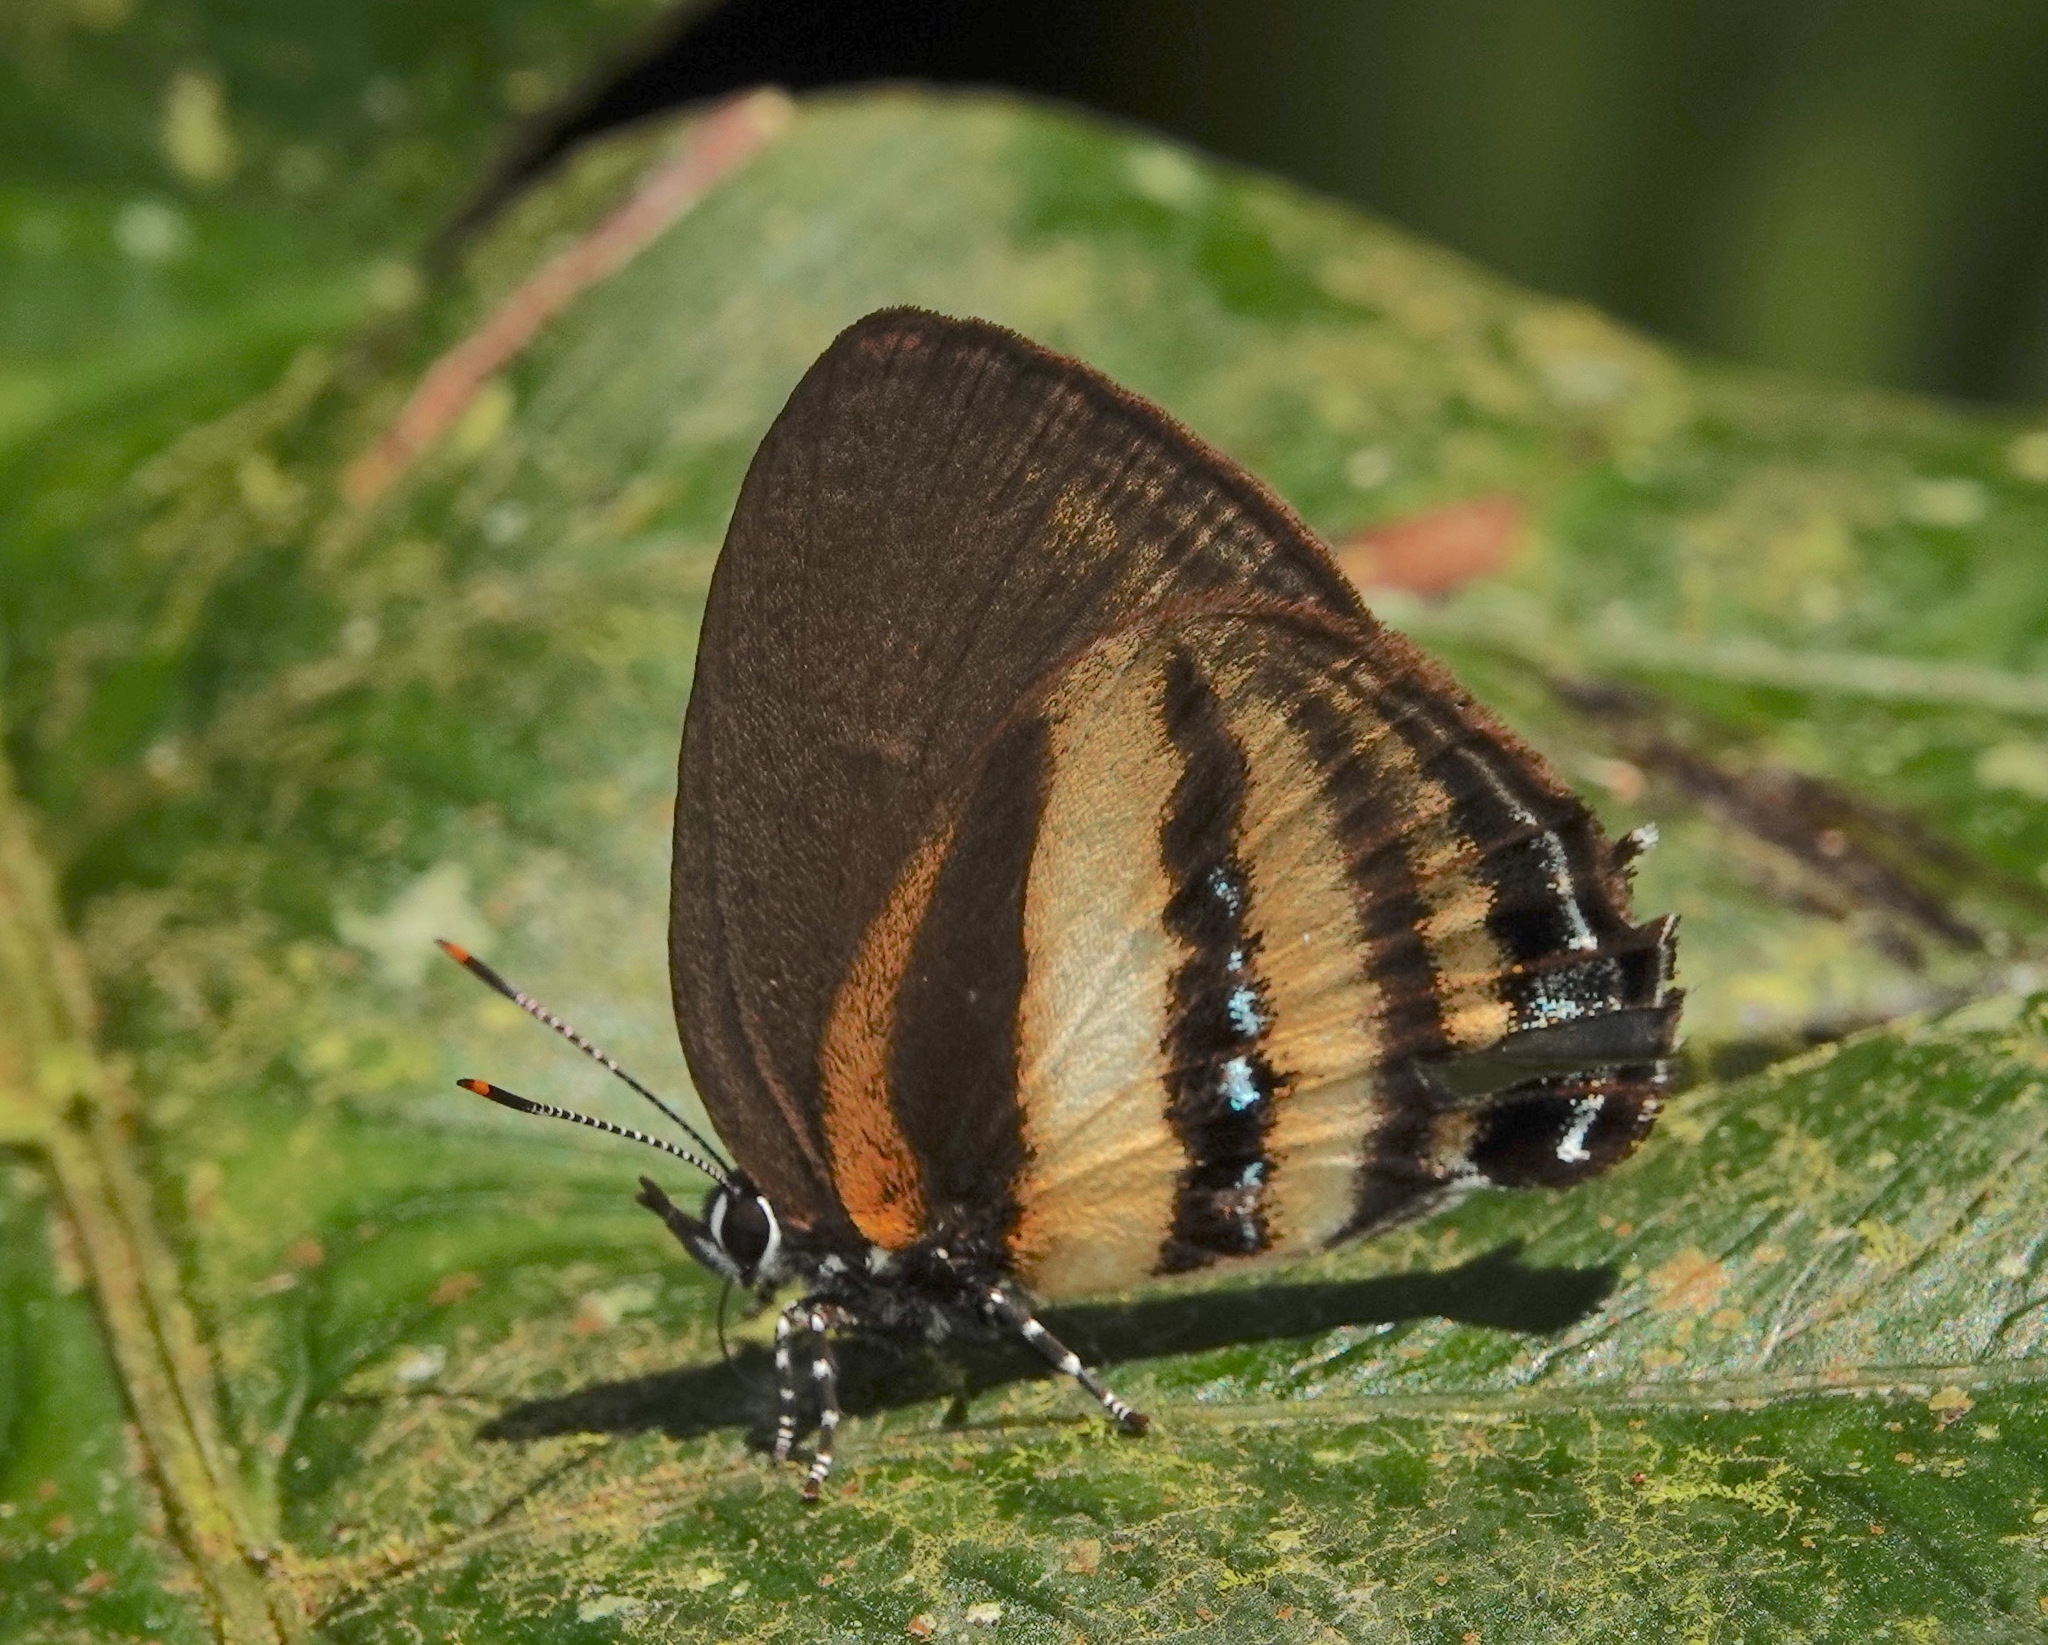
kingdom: Animalia
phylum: Arthropoda
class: Insecta
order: Lepidoptera
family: Lycaenidae
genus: Thestius
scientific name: Thestius
